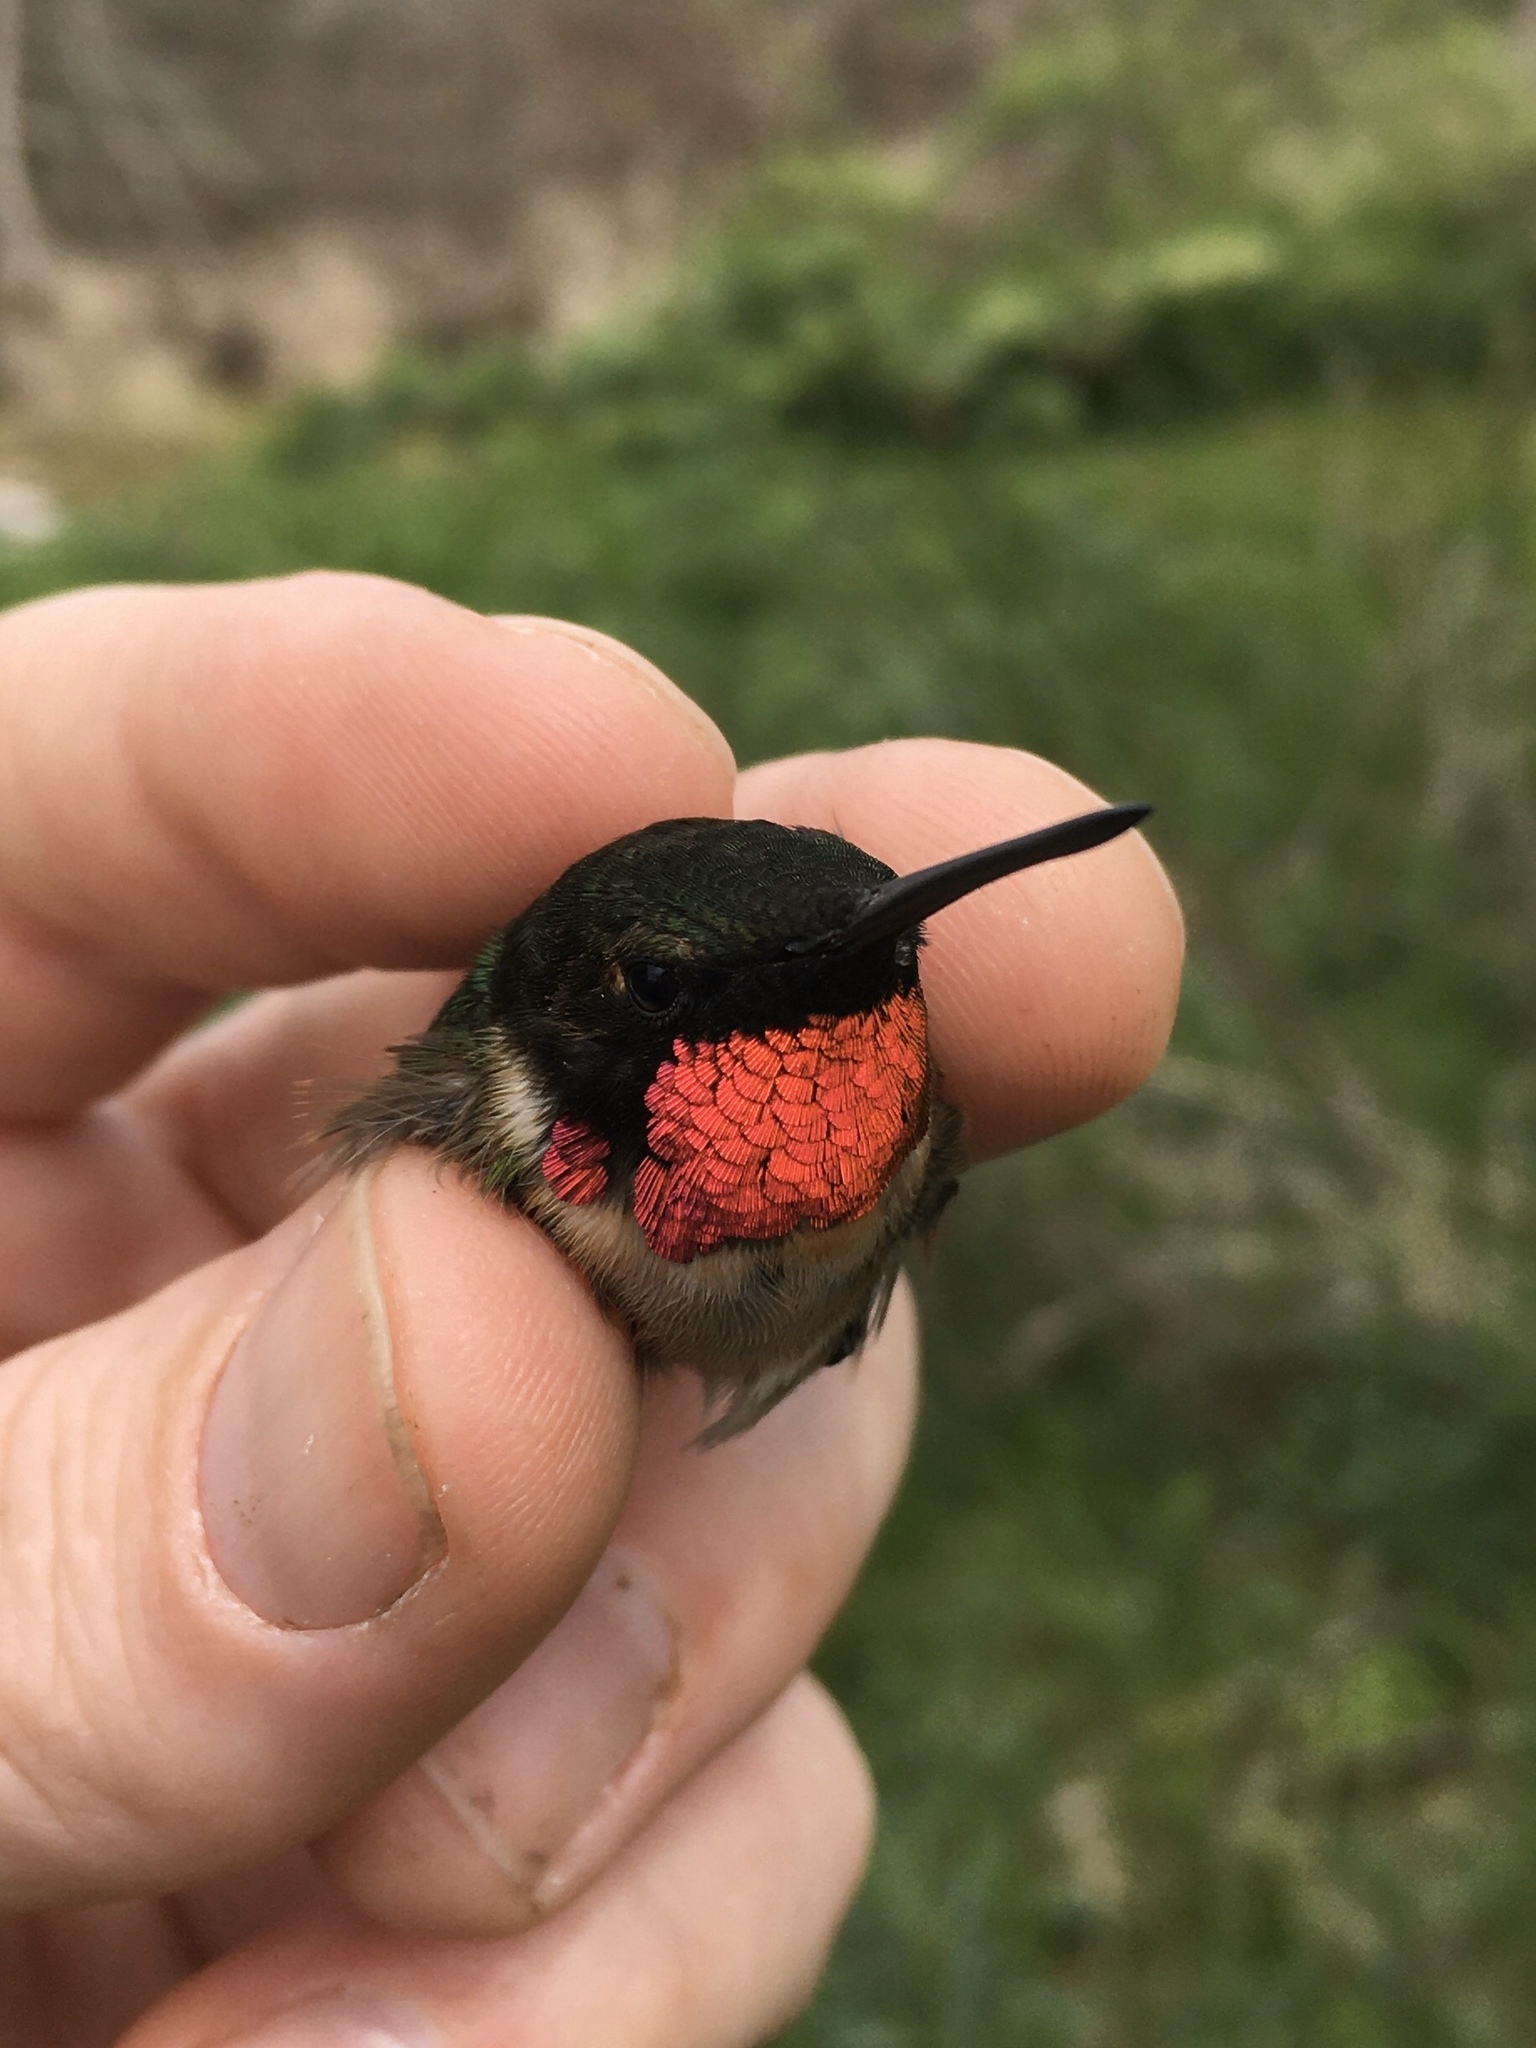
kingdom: Animalia
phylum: Chordata
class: Aves
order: Apodiformes
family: Trochilidae
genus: Archilochus
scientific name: Archilochus colubris
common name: Ruby-throated hummingbird
